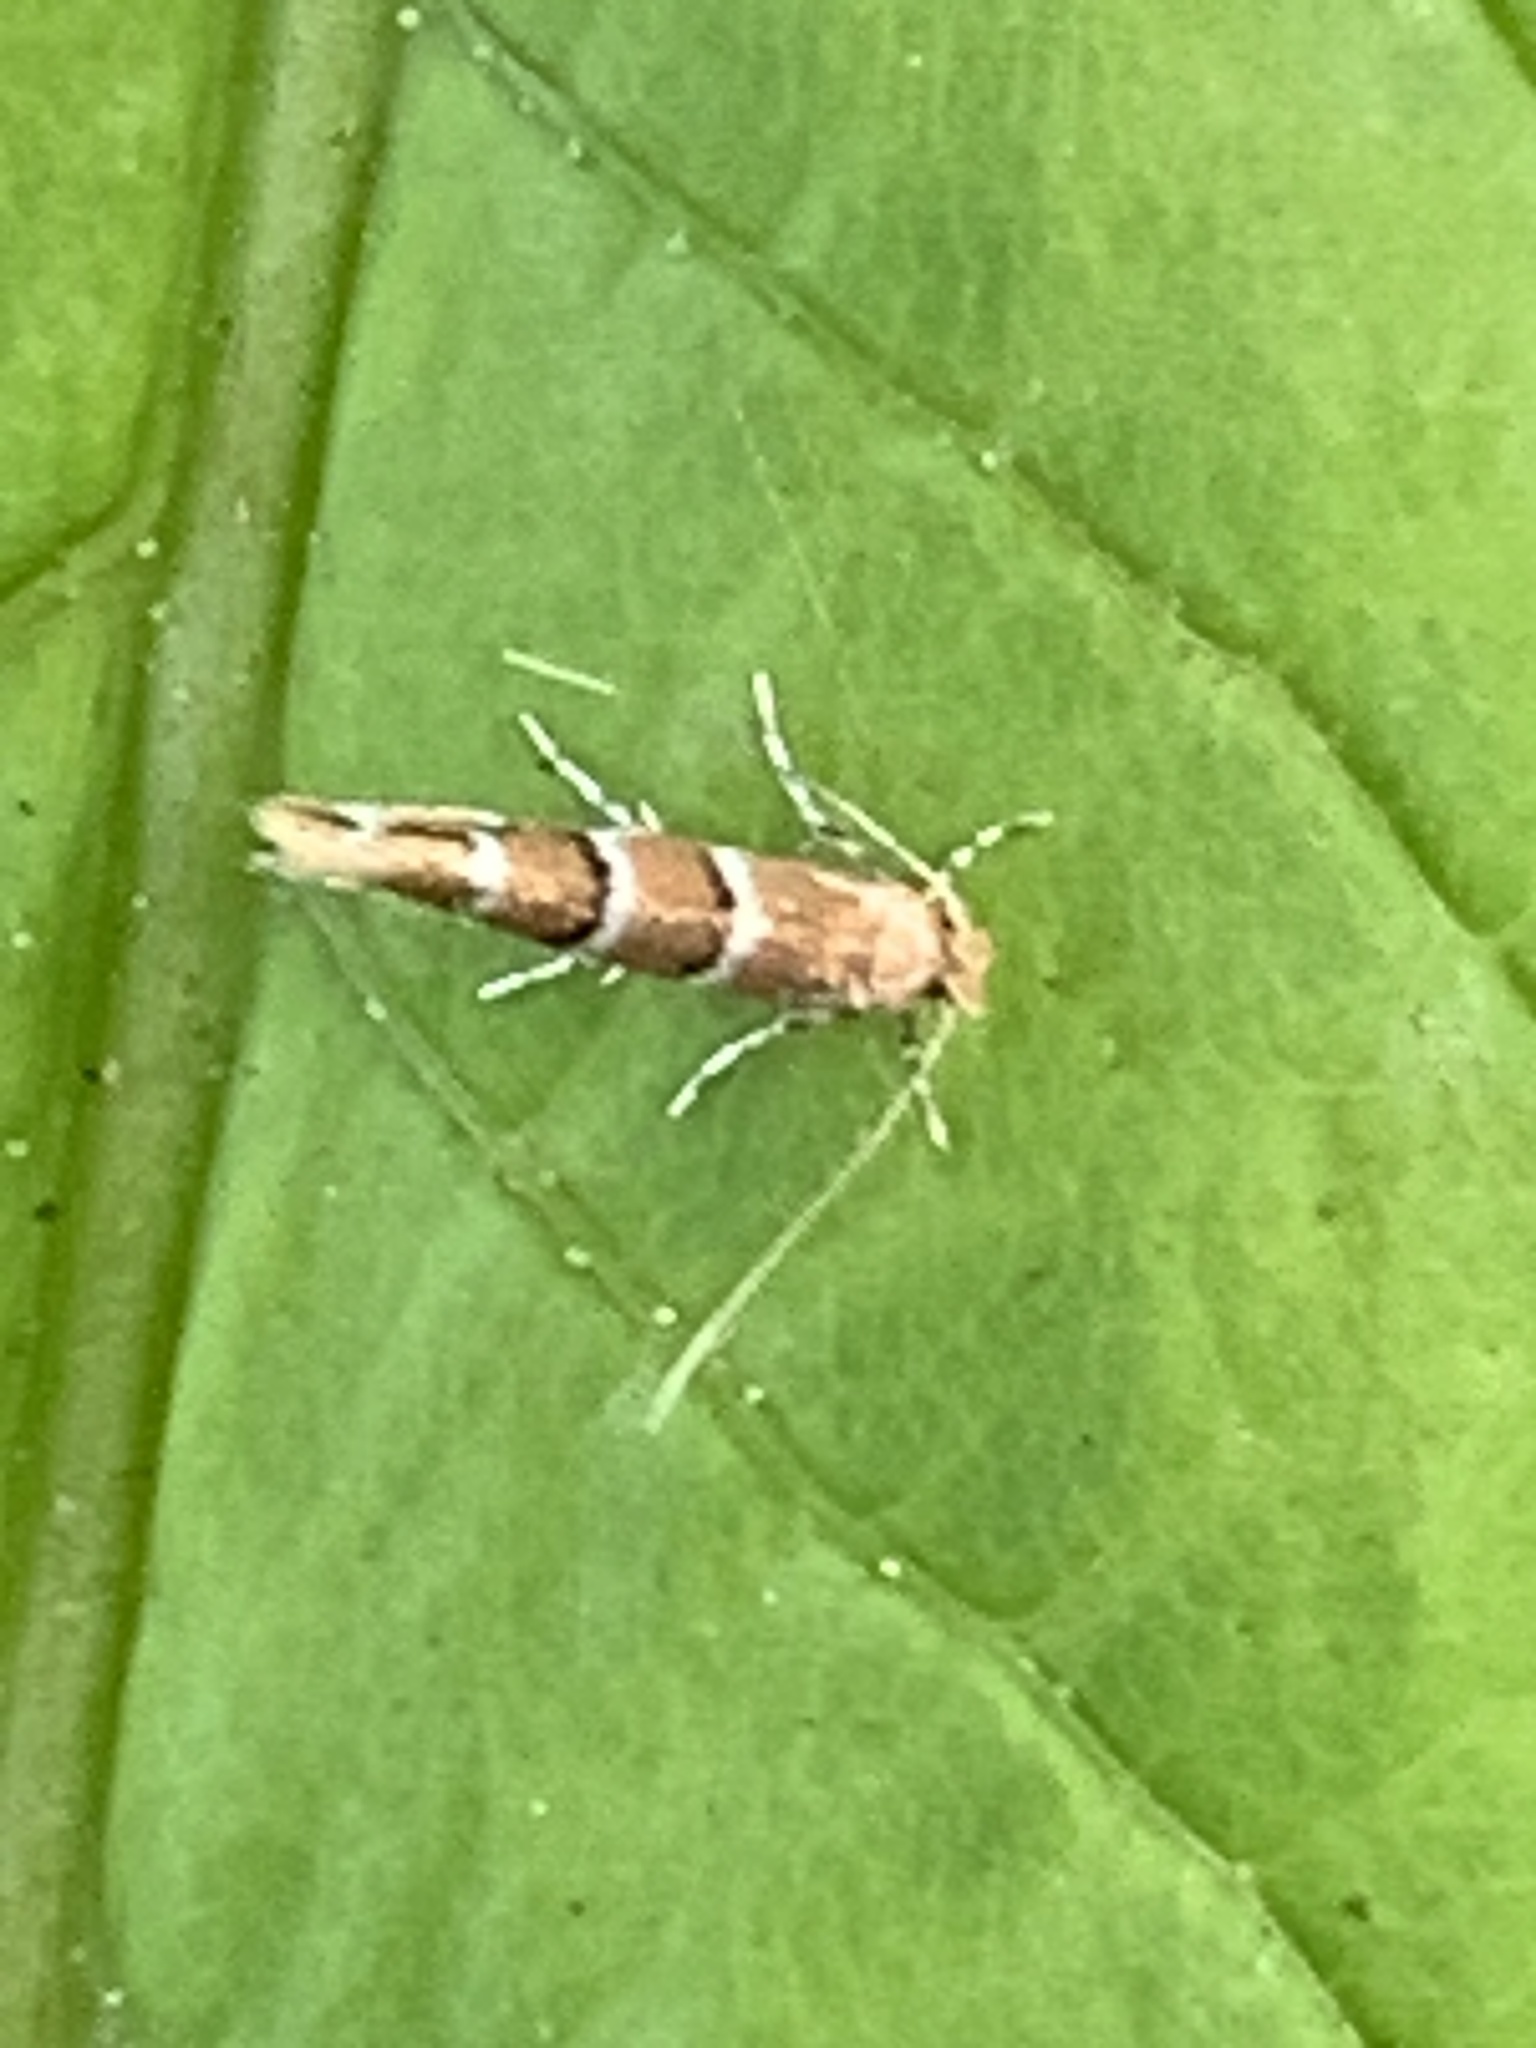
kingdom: Animalia
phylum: Arthropoda
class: Insecta
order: Lepidoptera
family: Gracillariidae
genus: Cameraria
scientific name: Cameraria ohridella
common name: Horse-chestnut leaf-miner
